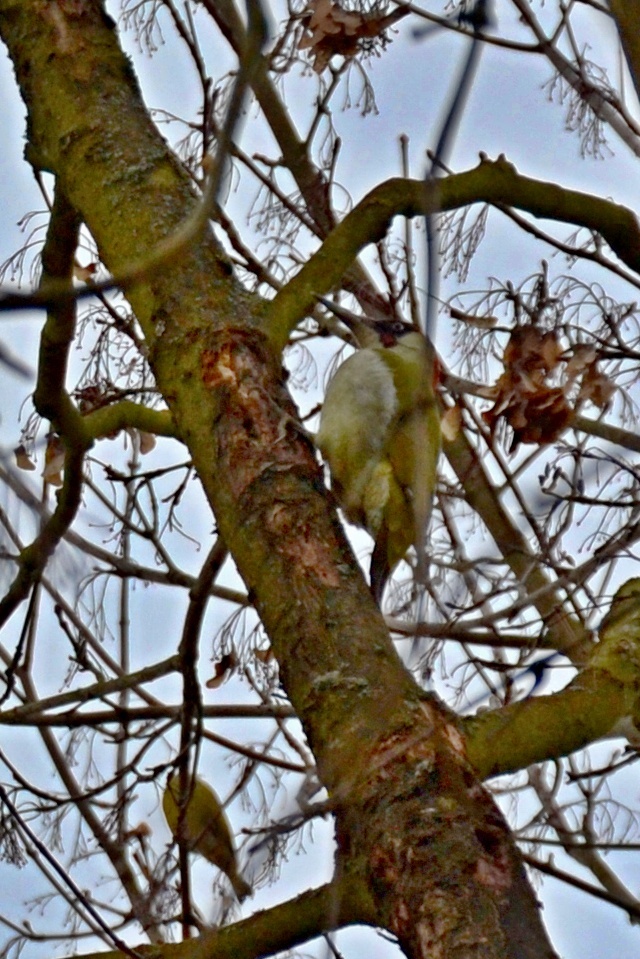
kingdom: Animalia
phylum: Chordata
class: Aves
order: Piciformes
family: Picidae
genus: Picus
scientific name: Picus viridis
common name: European green woodpecker
